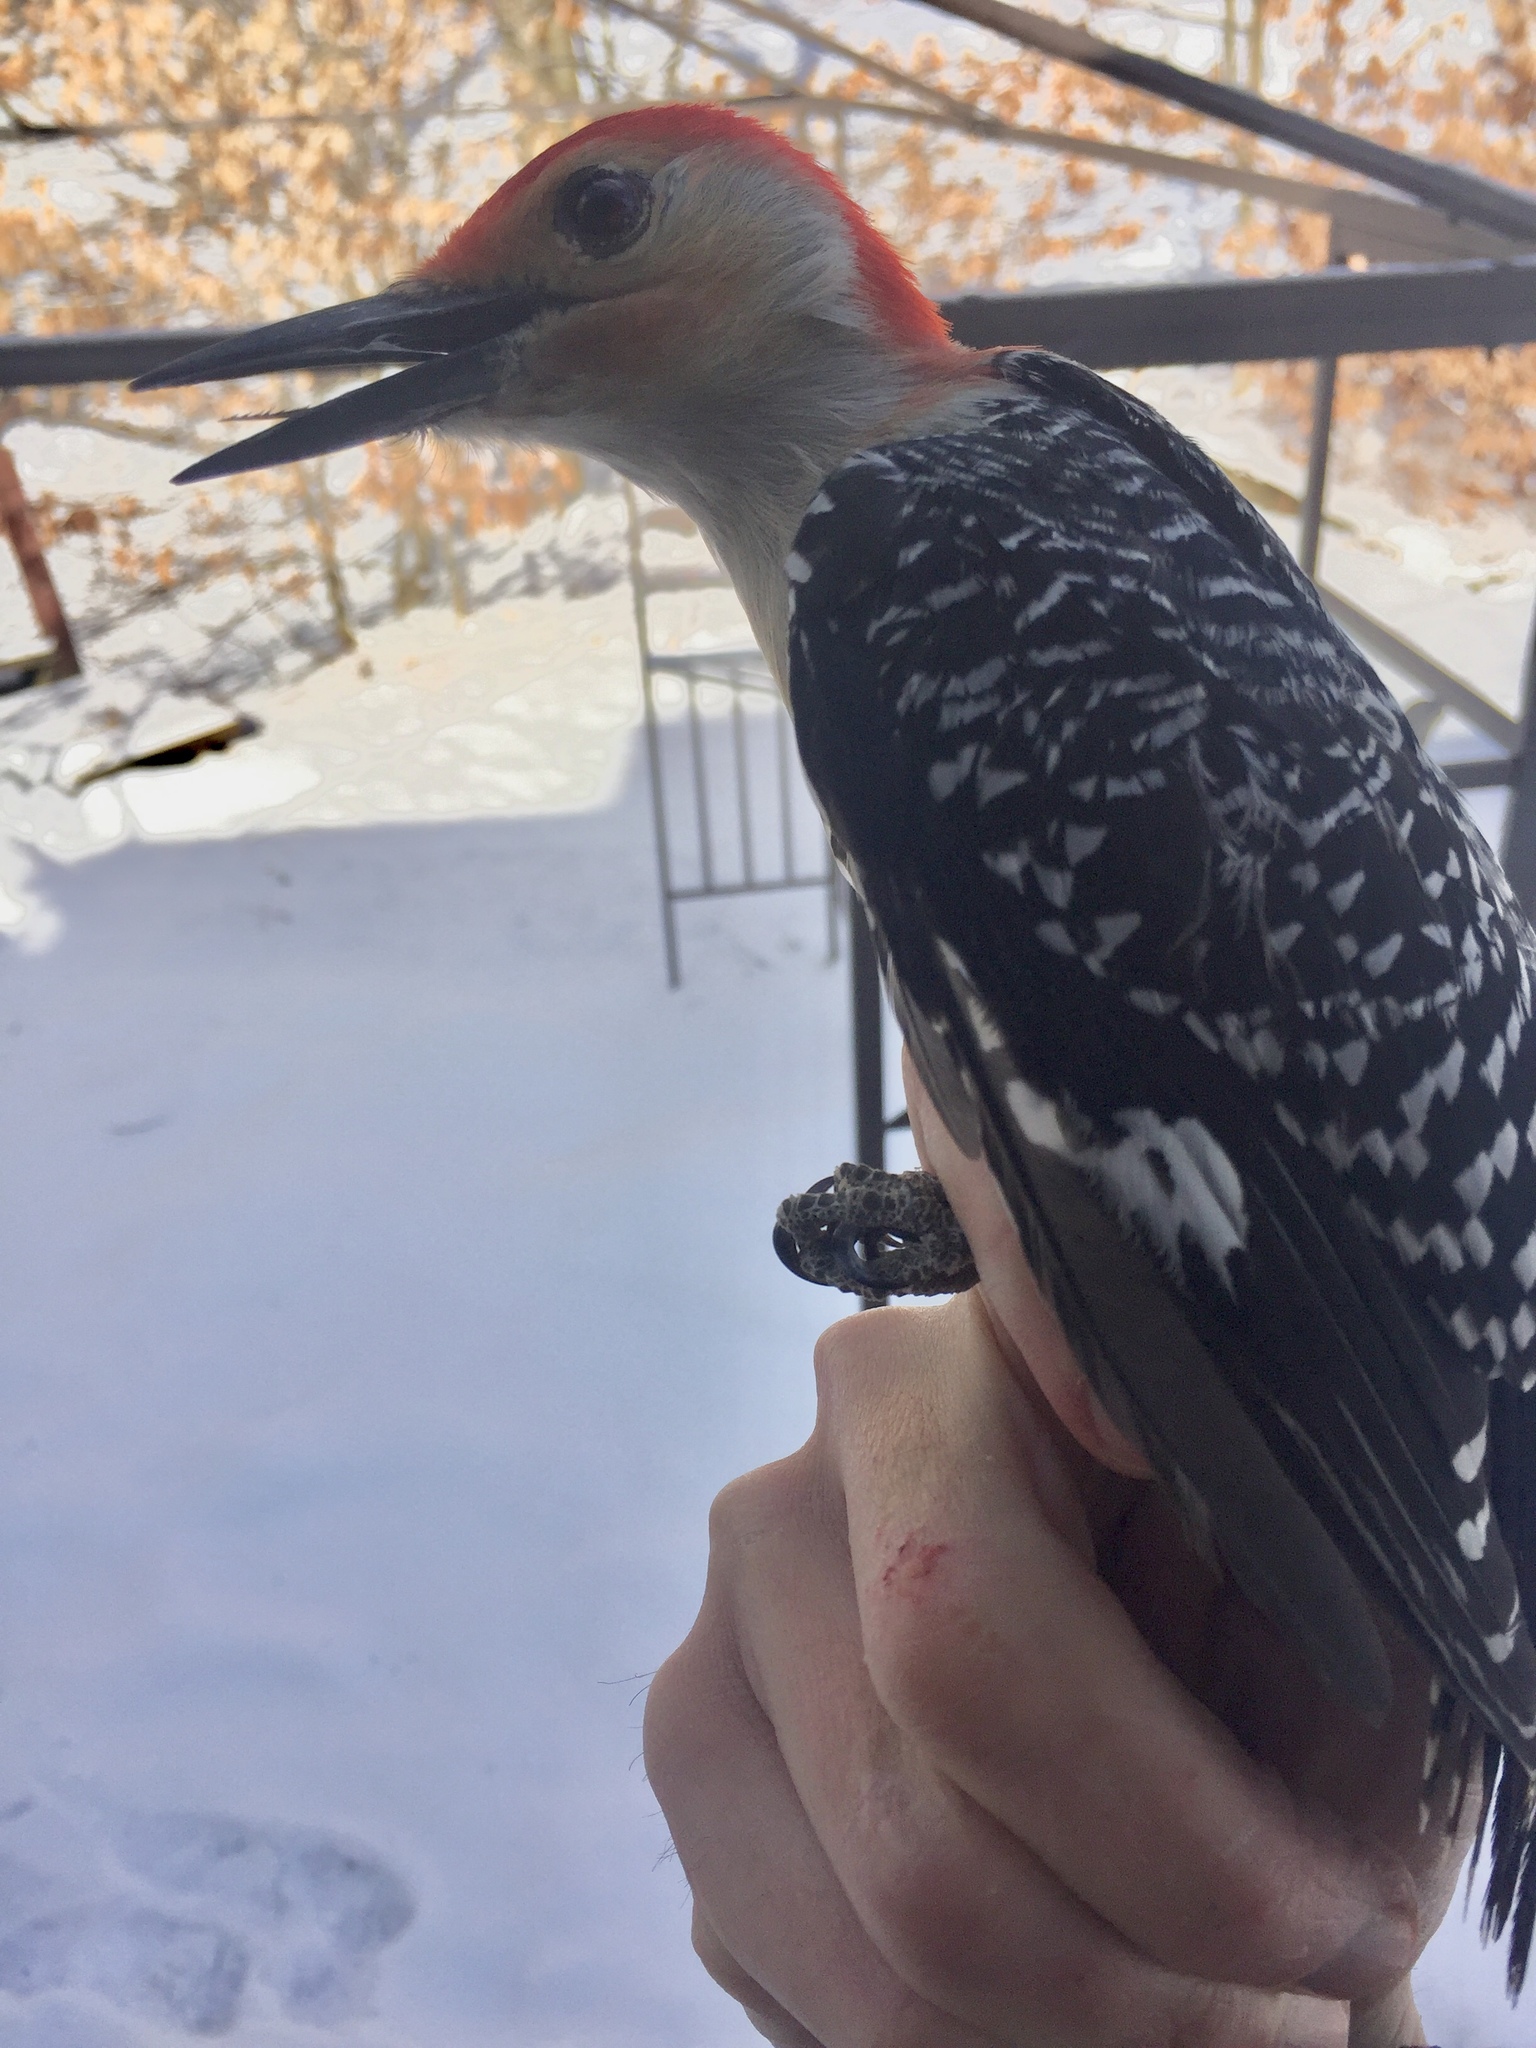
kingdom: Animalia
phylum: Chordata
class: Aves
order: Piciformes
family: Picidae
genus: Melanerpes
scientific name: Melanerpes carolinus
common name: Red-bellied woodpecker
